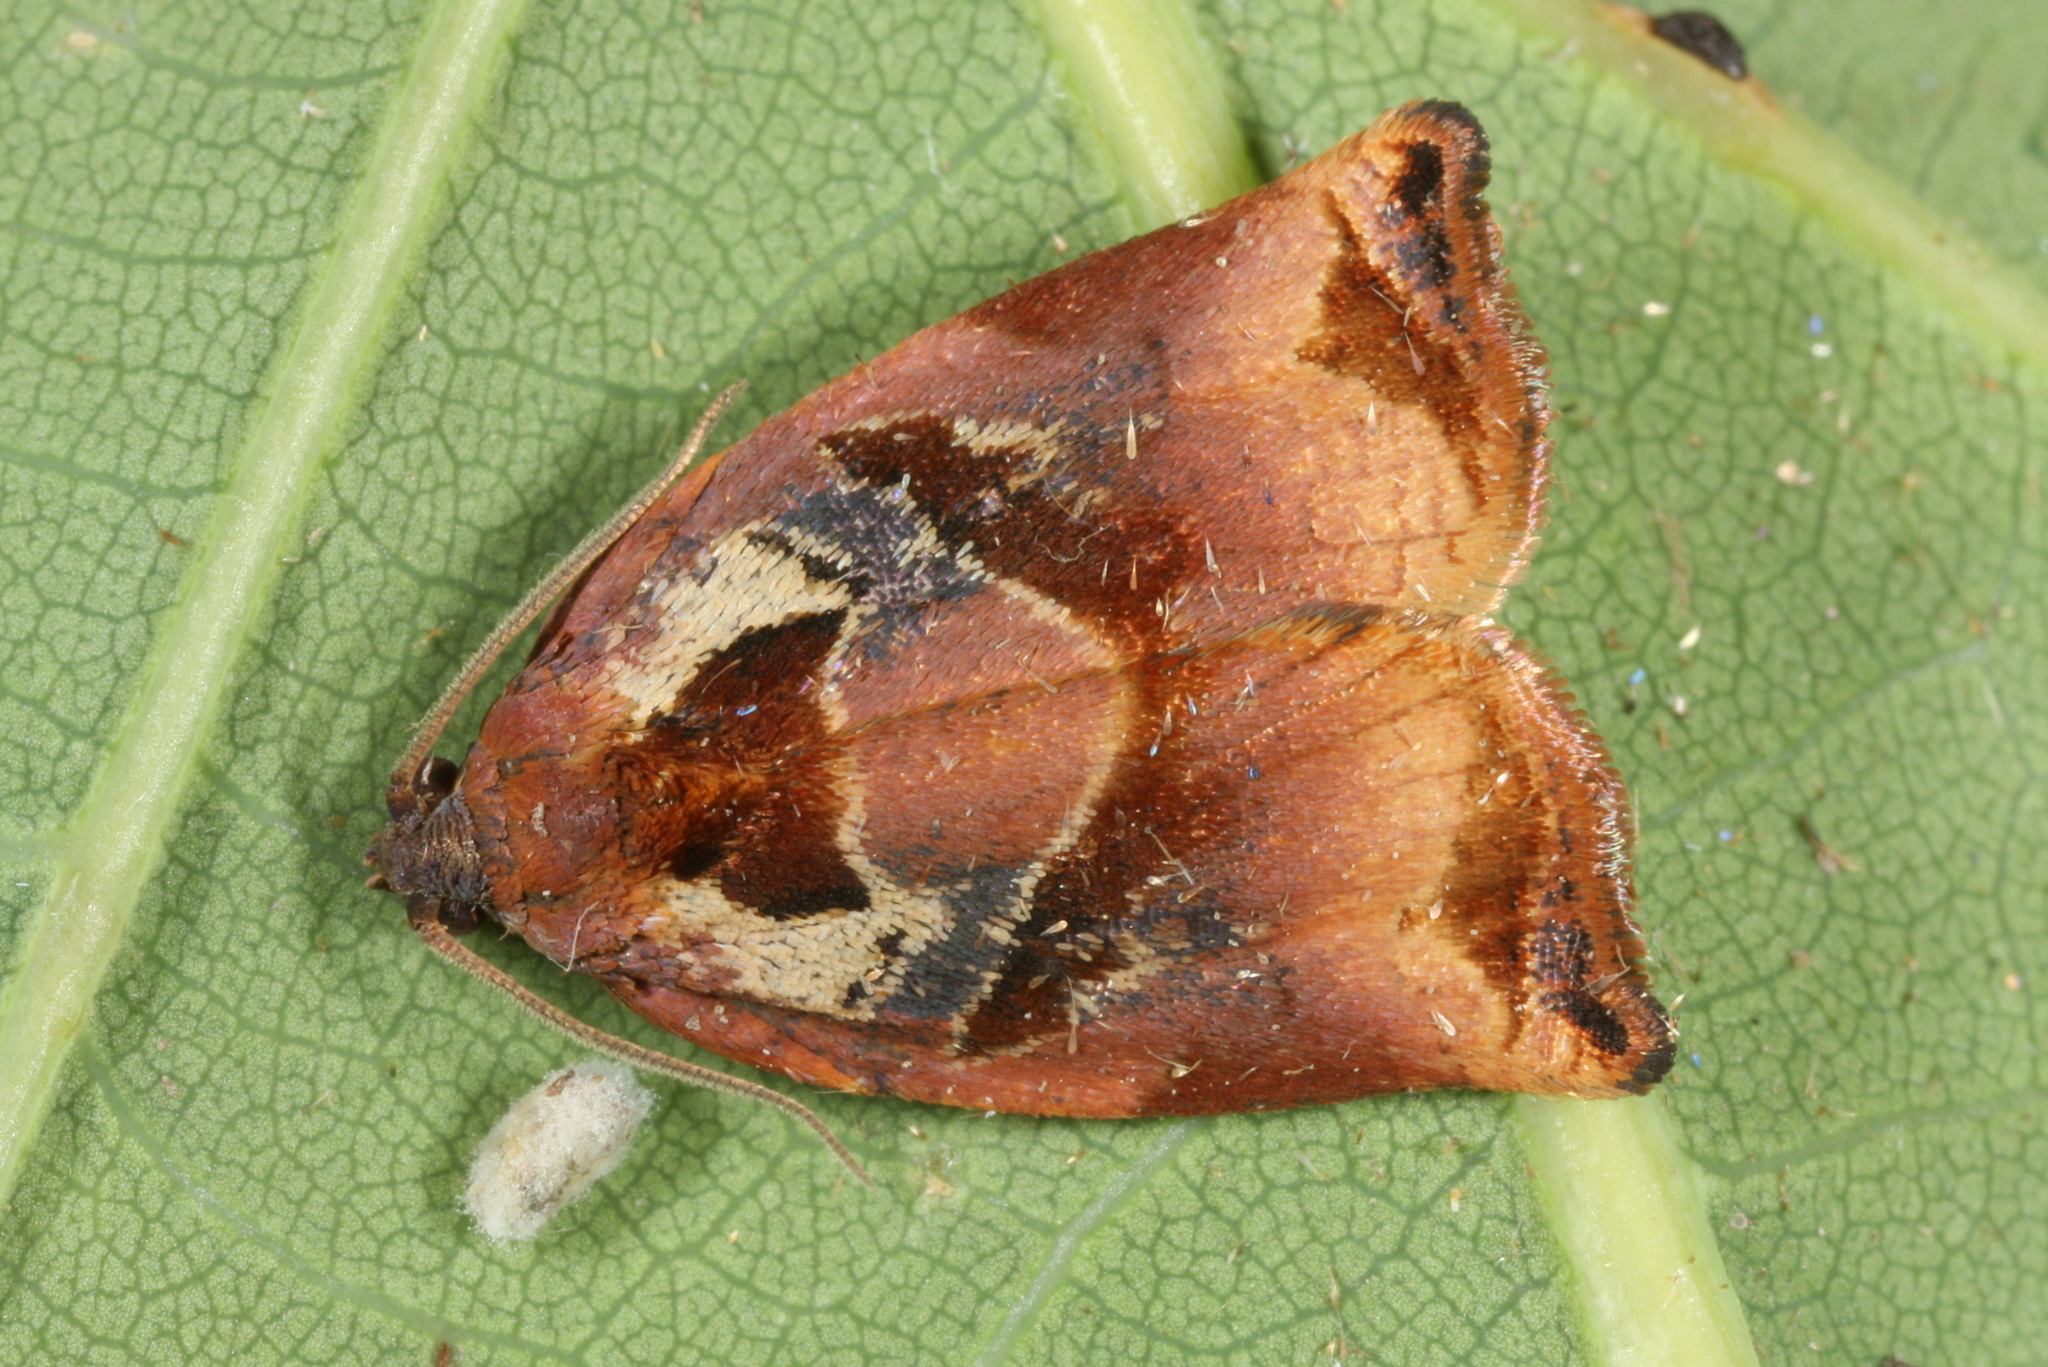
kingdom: Animalia
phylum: Arthropoda
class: Insecta
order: Lepidoptera
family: Tortricidae
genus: Archips
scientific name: Archips podana
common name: Large fruit-tree tortrix
